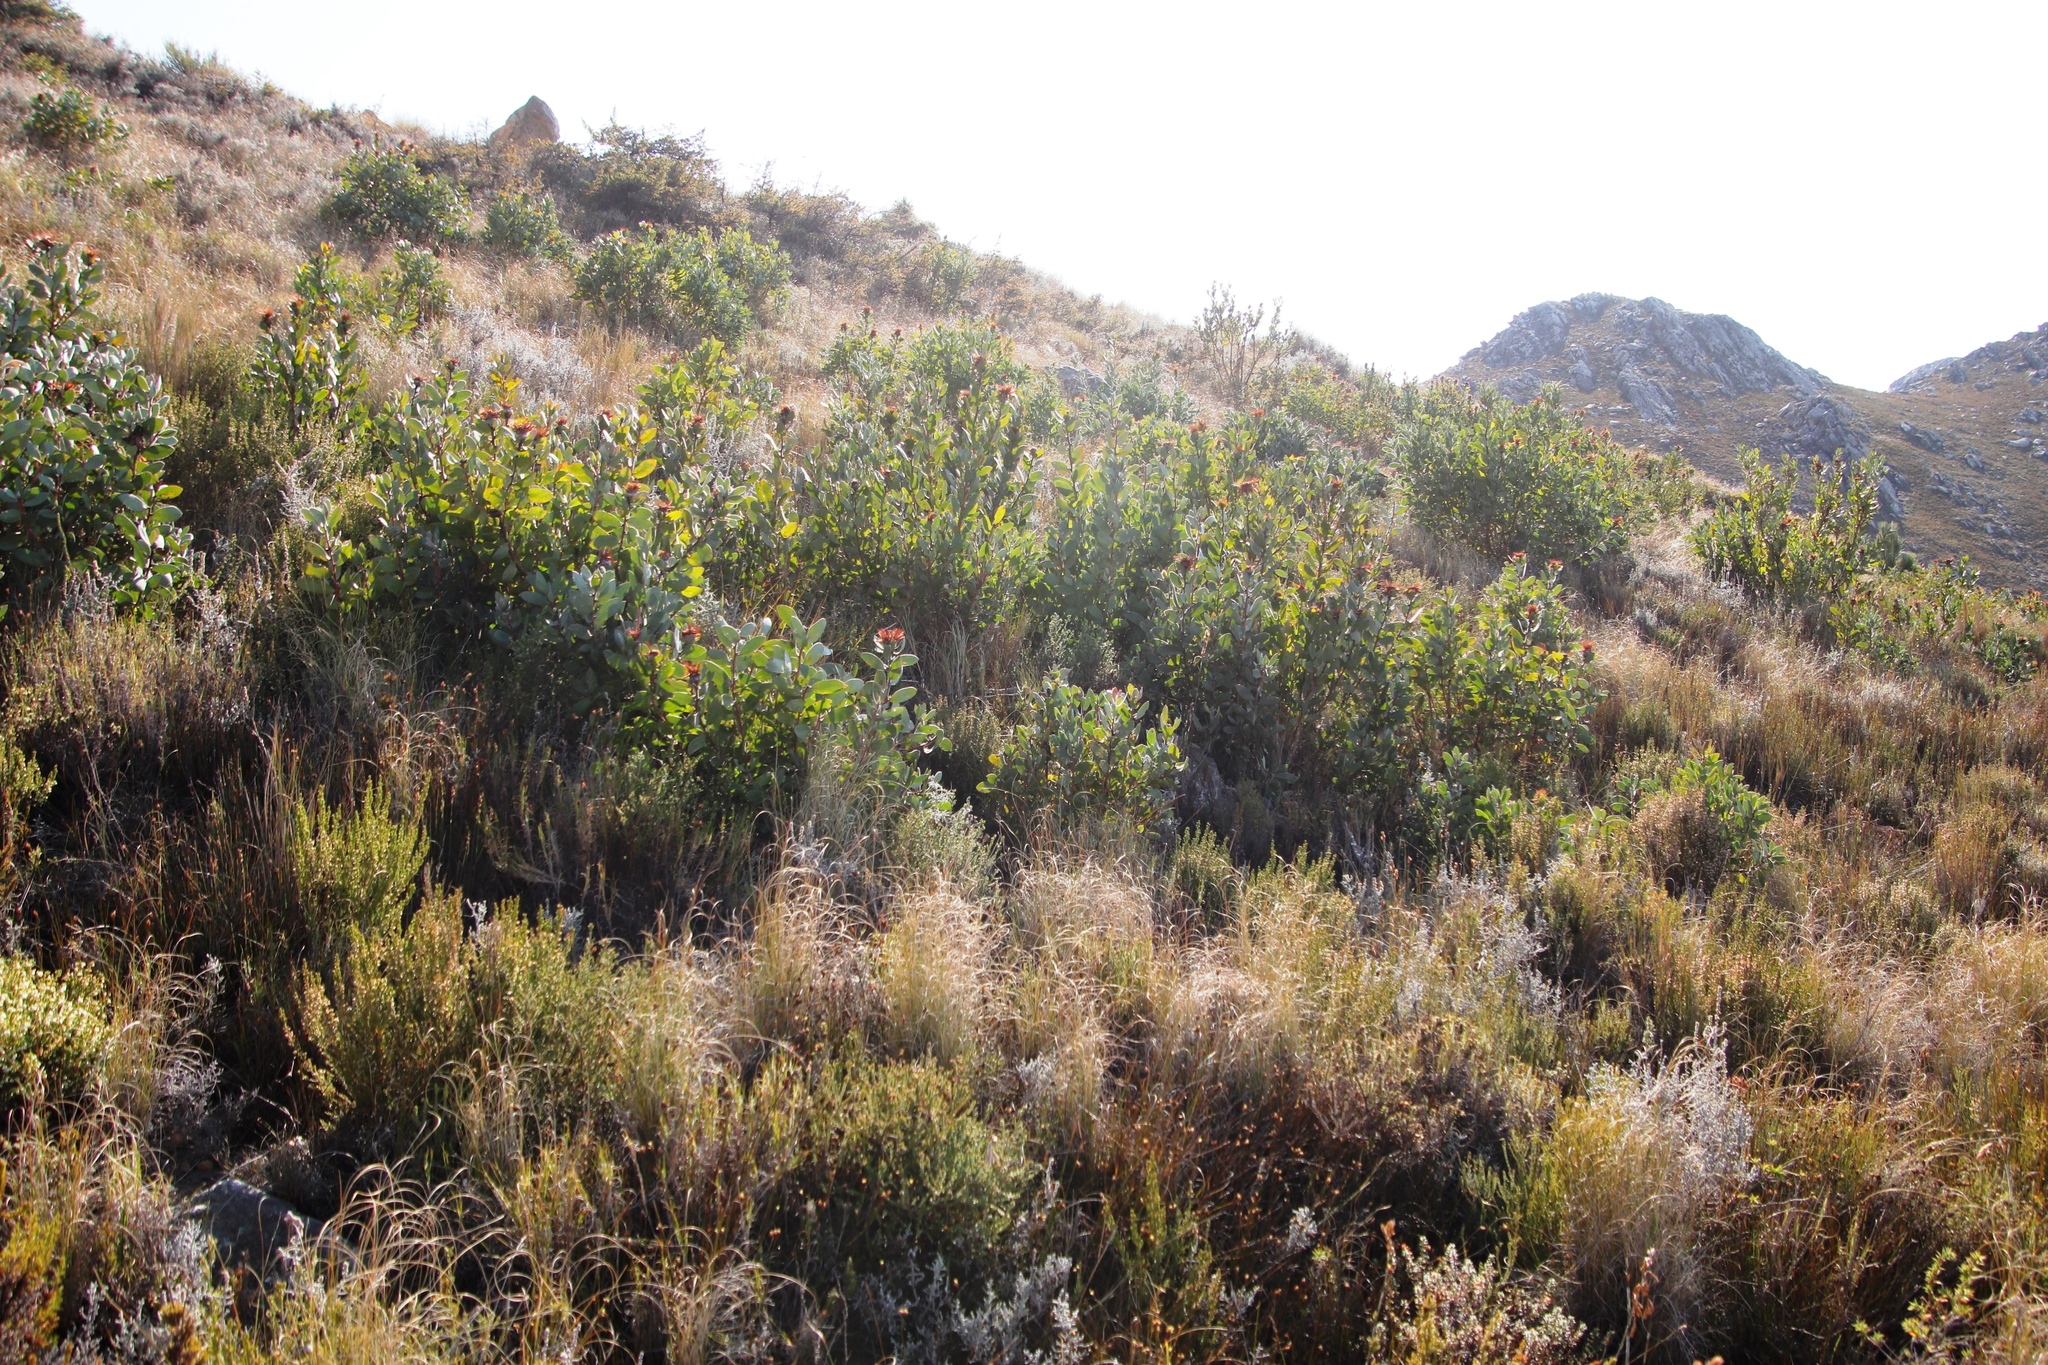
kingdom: Plantae
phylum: Tracheophyta
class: Magnoliopsida
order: Proteales
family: Proteaceae
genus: Protea
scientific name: Protea punctata
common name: Water sugarbush
